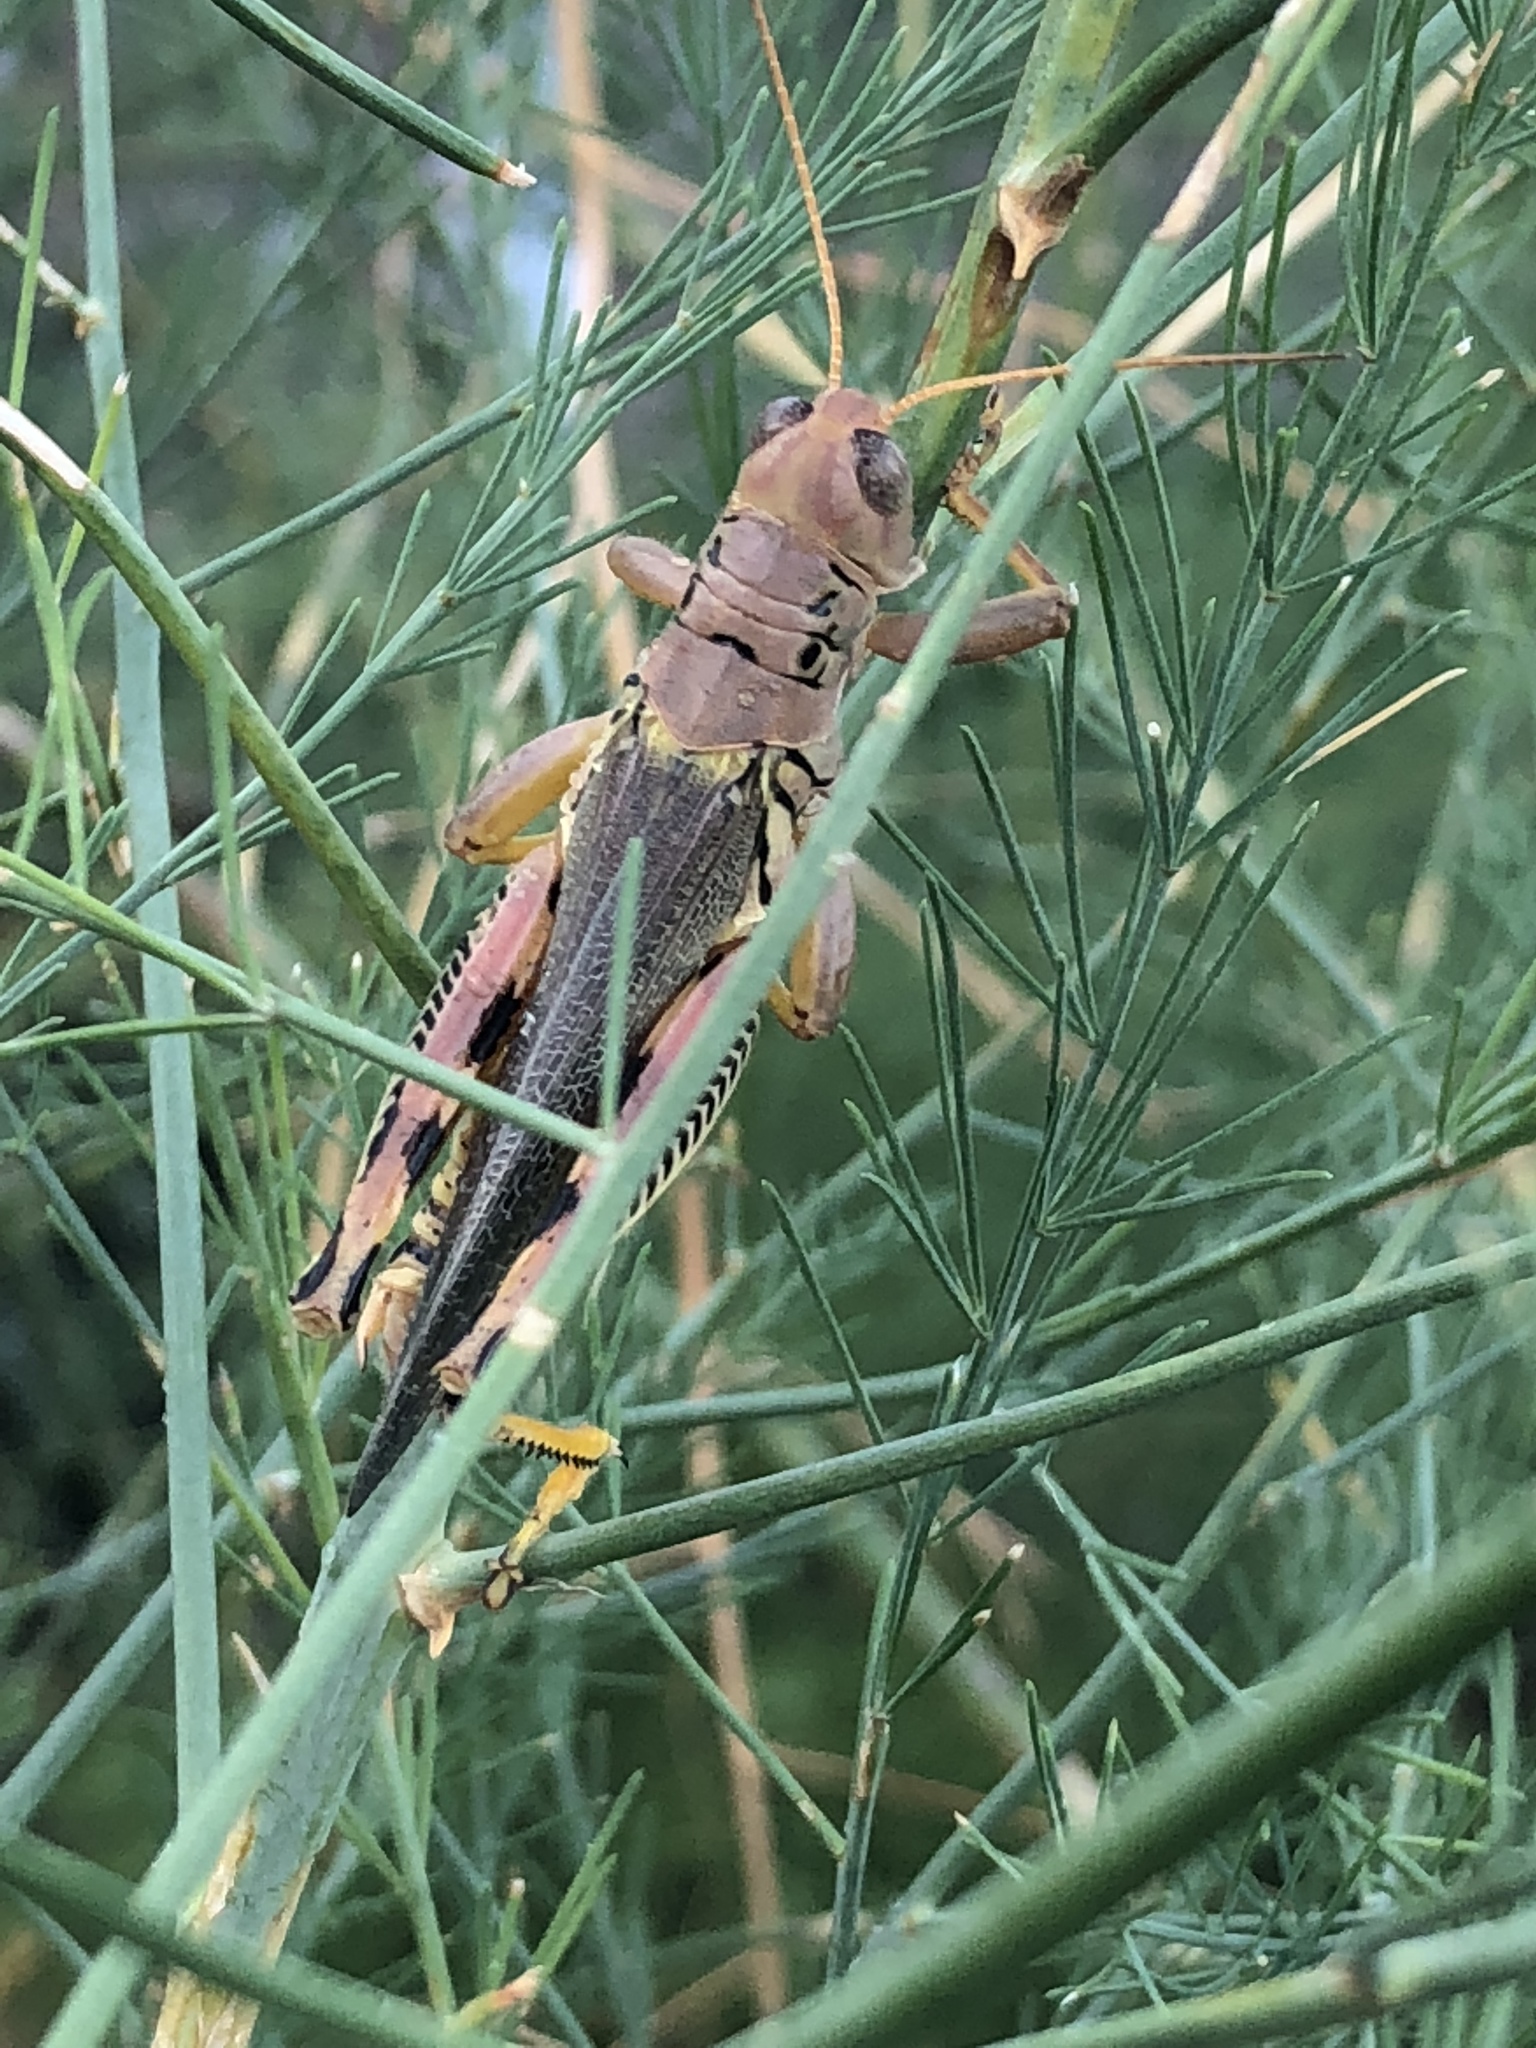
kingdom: Animalia
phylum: Arthropoda
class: Insecta
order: Orthoptera
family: Acrididae
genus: Melanoplus
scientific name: Melanoplus differentialis
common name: Differential grasshopper
